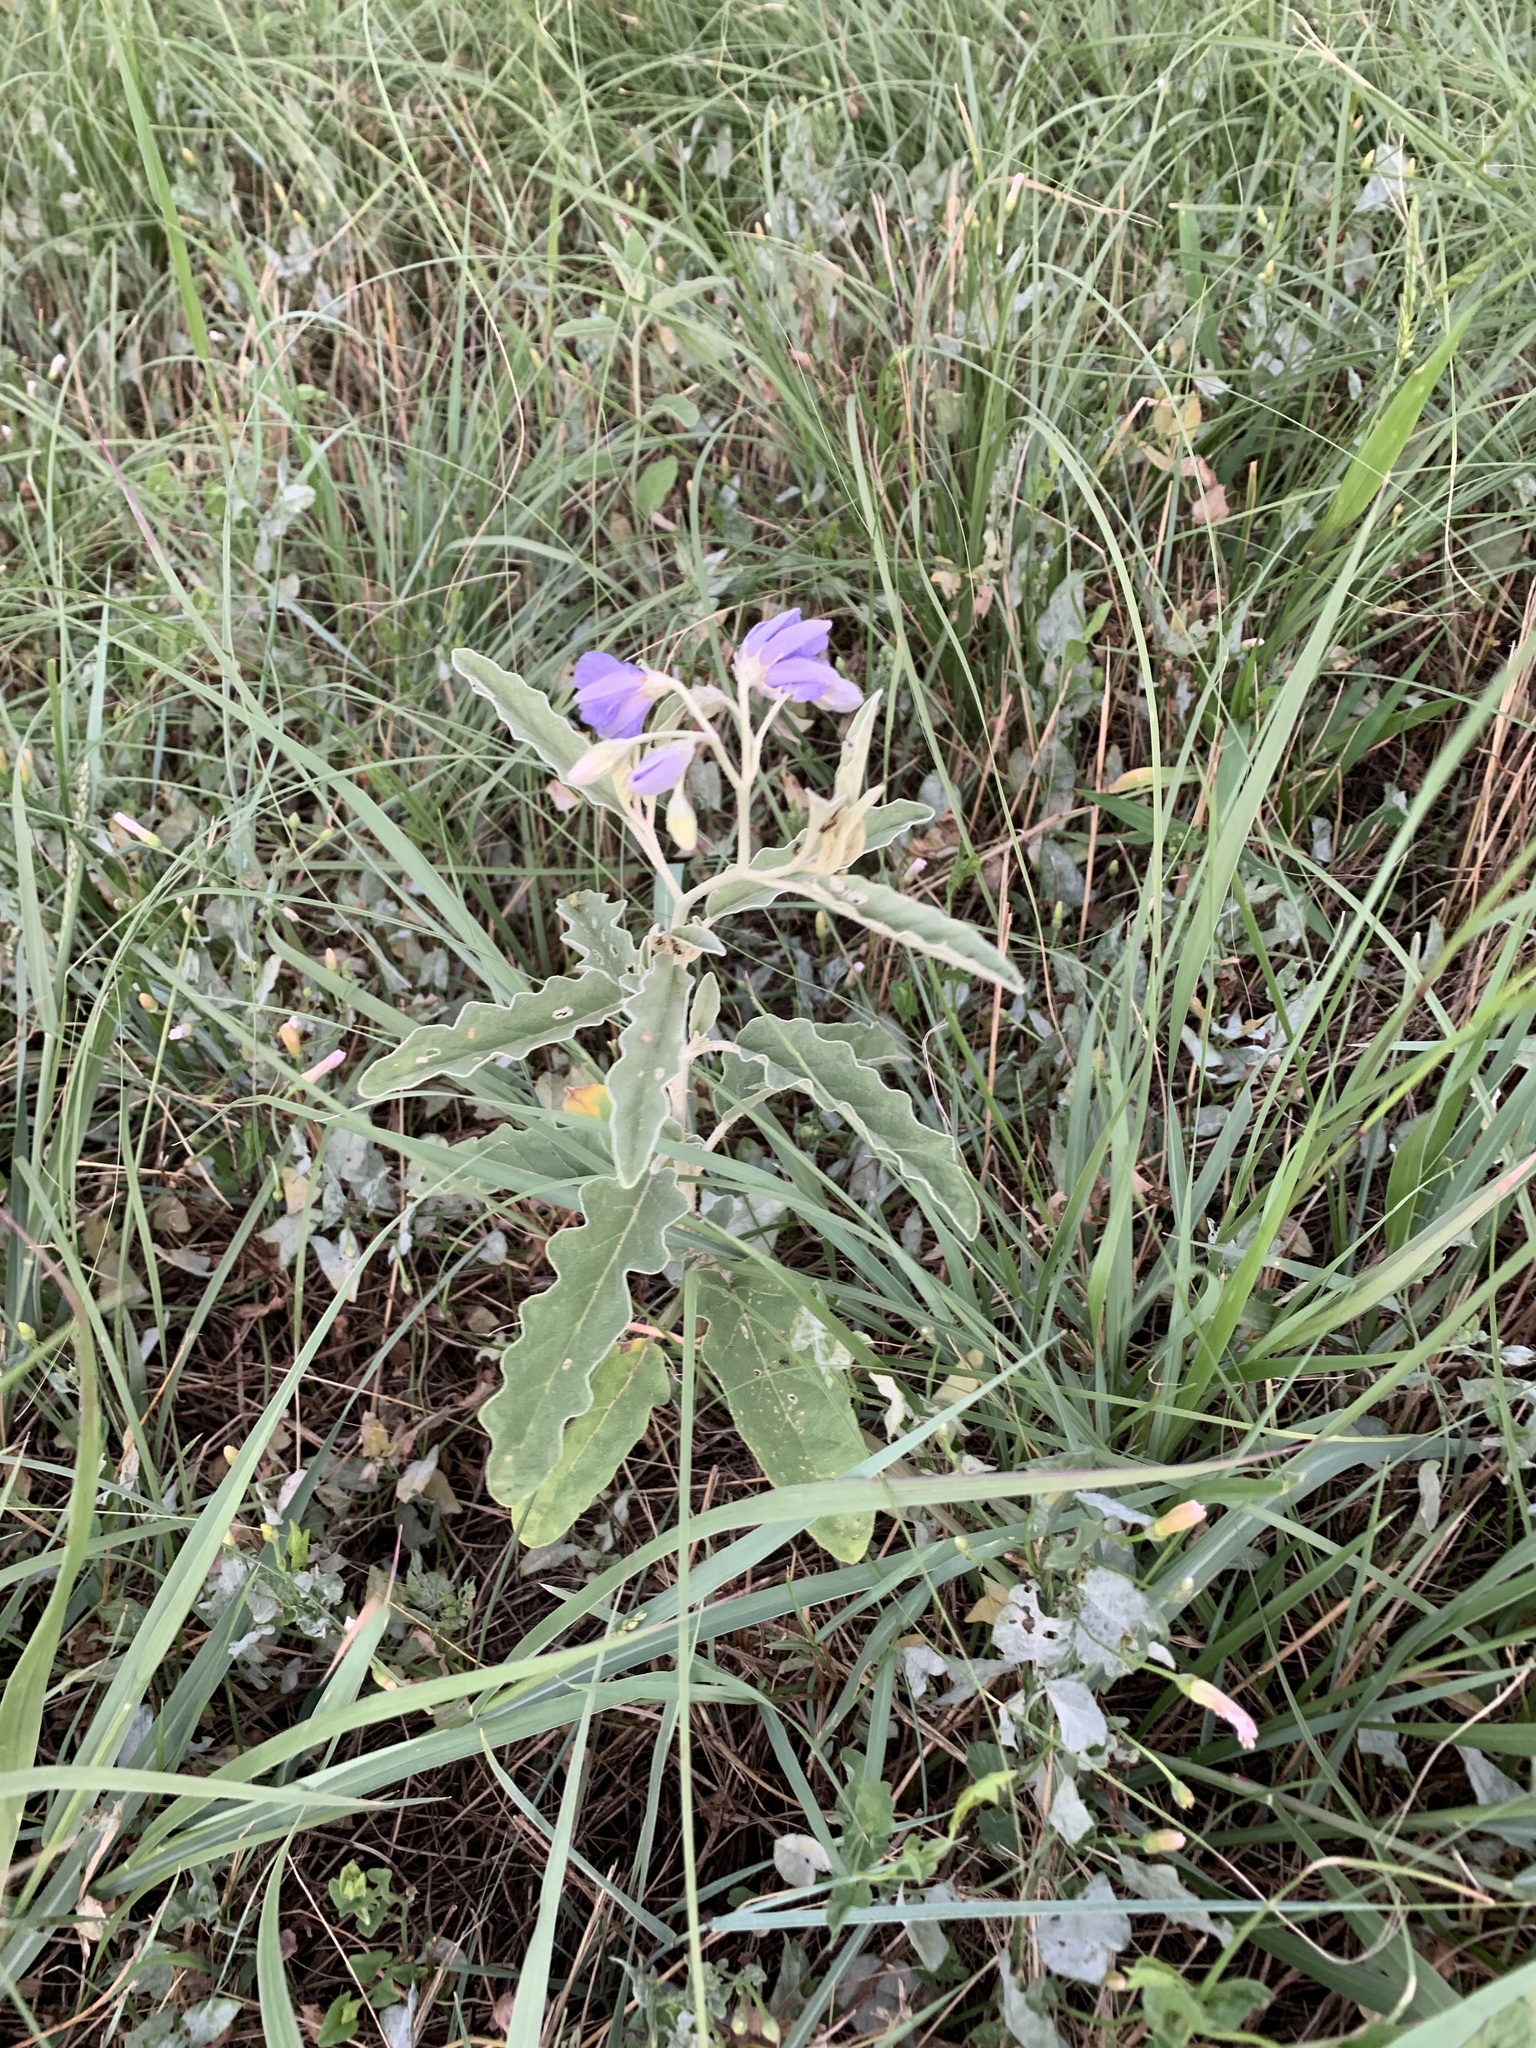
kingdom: Plantae
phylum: Tracheophyta
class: Magnoliopsida
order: Solanales
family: Solanaceae
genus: Solanum
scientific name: Solanum elaeagnifolium
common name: Silverleaf nightshade
